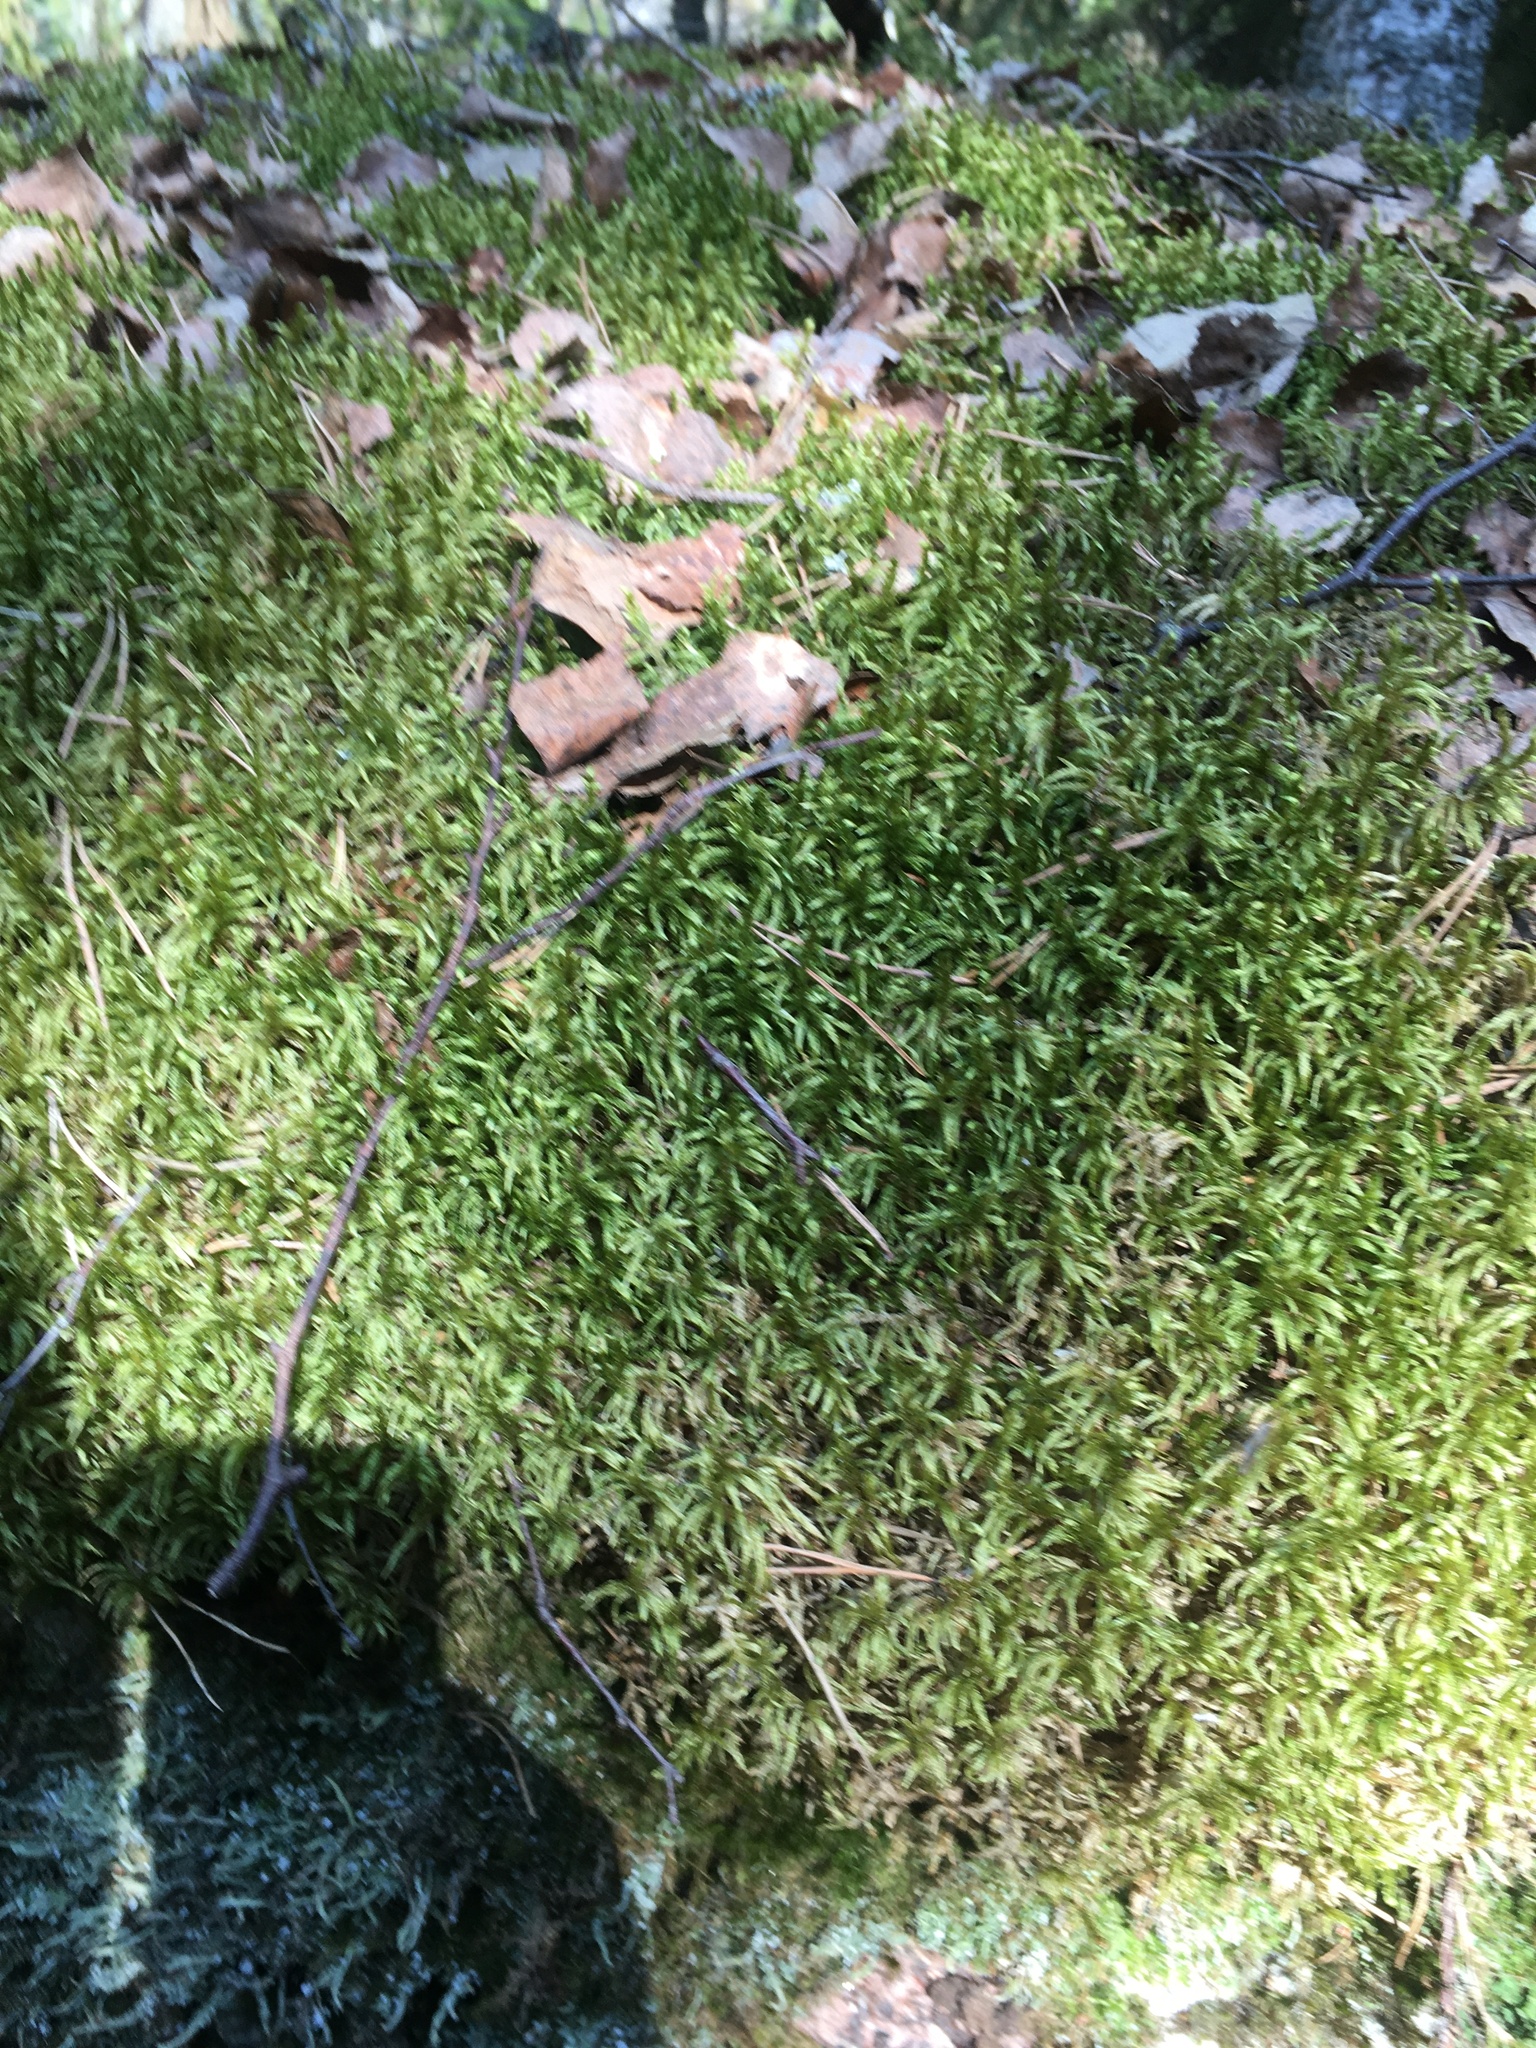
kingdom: Plantae
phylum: Bryophyta
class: Bryopsida
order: Hypnales
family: Hylocomiaceae
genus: Pleurozium
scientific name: Pleurozium schreberi
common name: Red-stemmed feather moss
